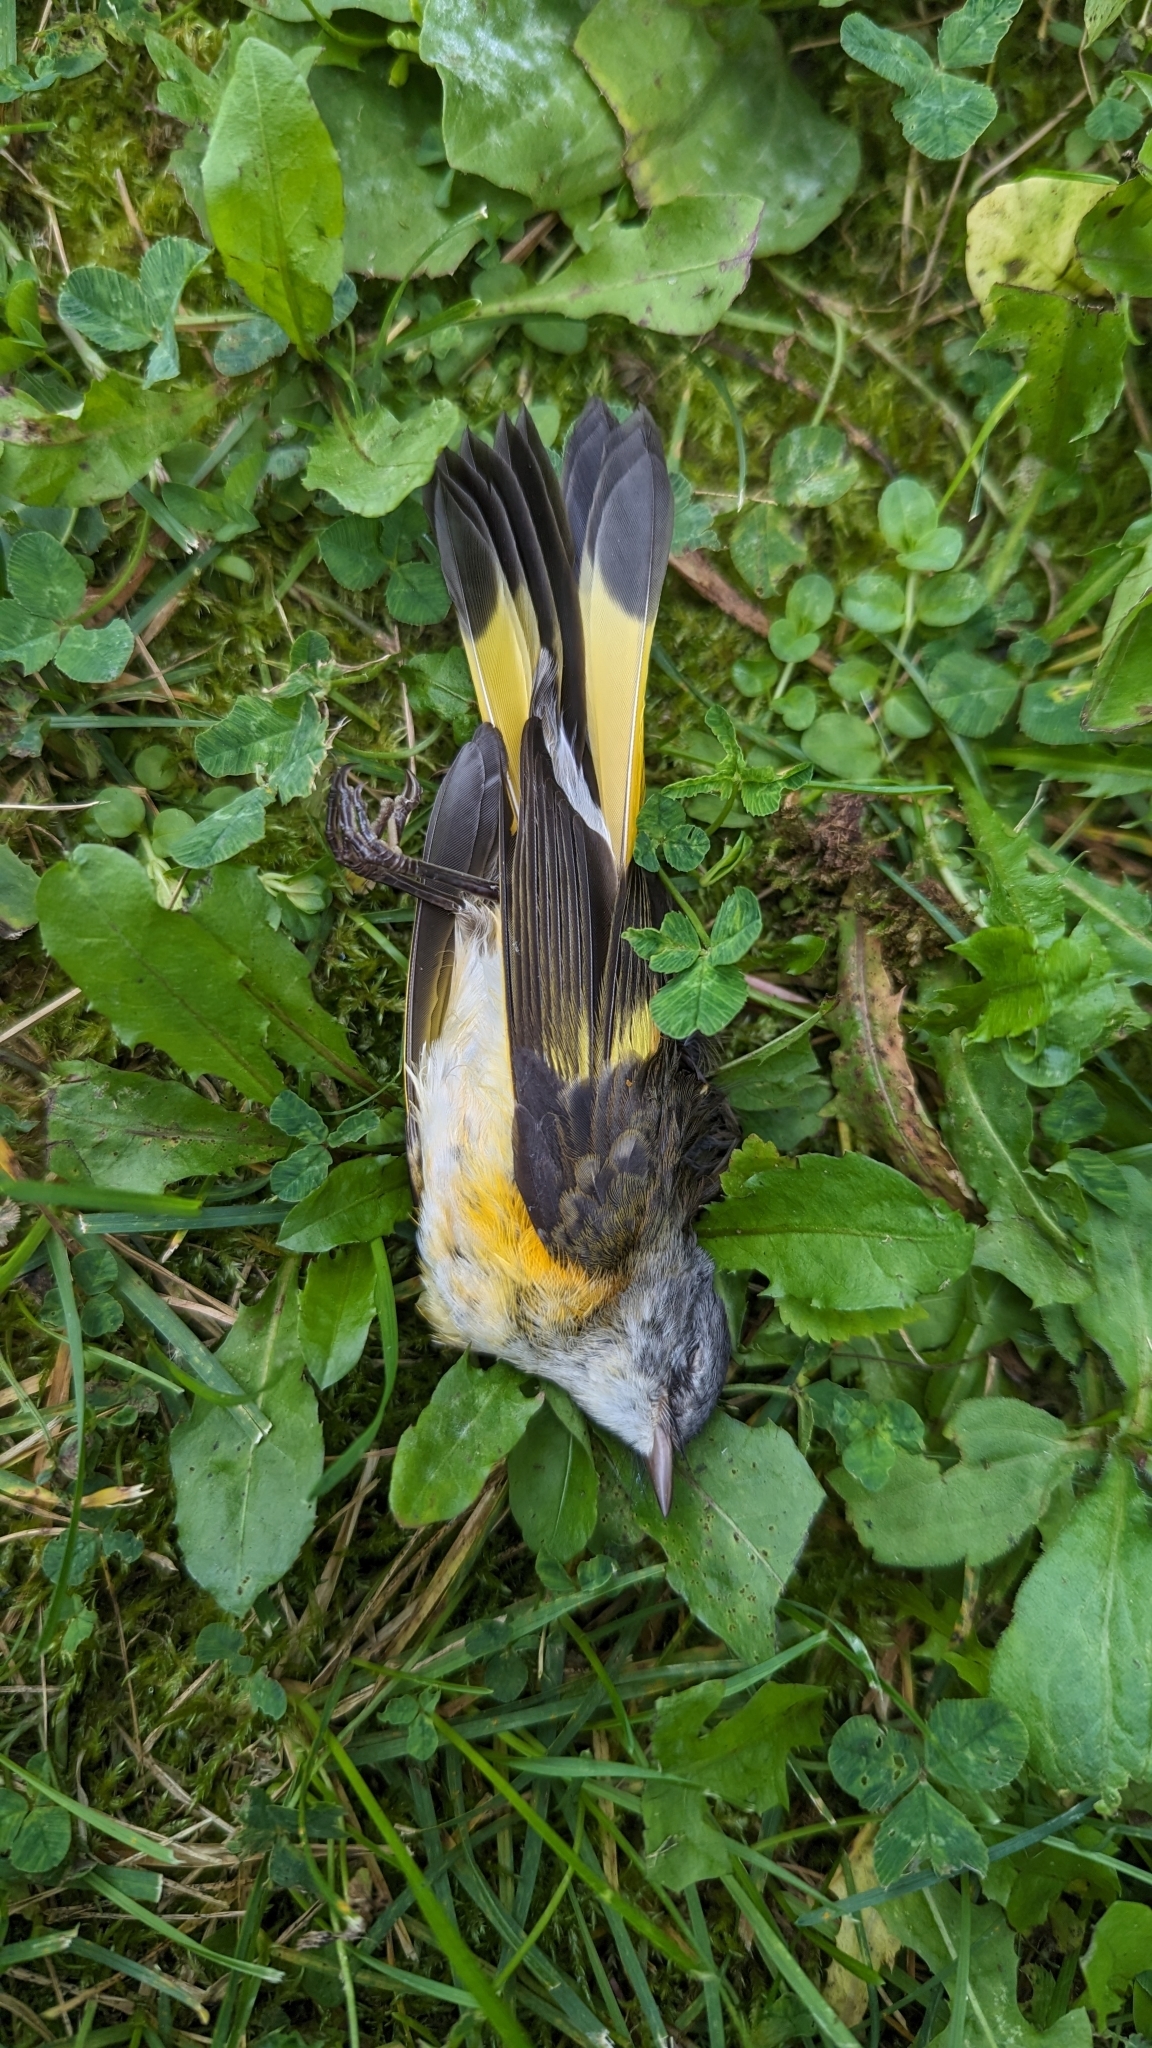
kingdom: Animalia
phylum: Chordata
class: Aves
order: Passeriformes
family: Parulidae
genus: Setophaga
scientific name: Setophaga ruticilla
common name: American redstart
